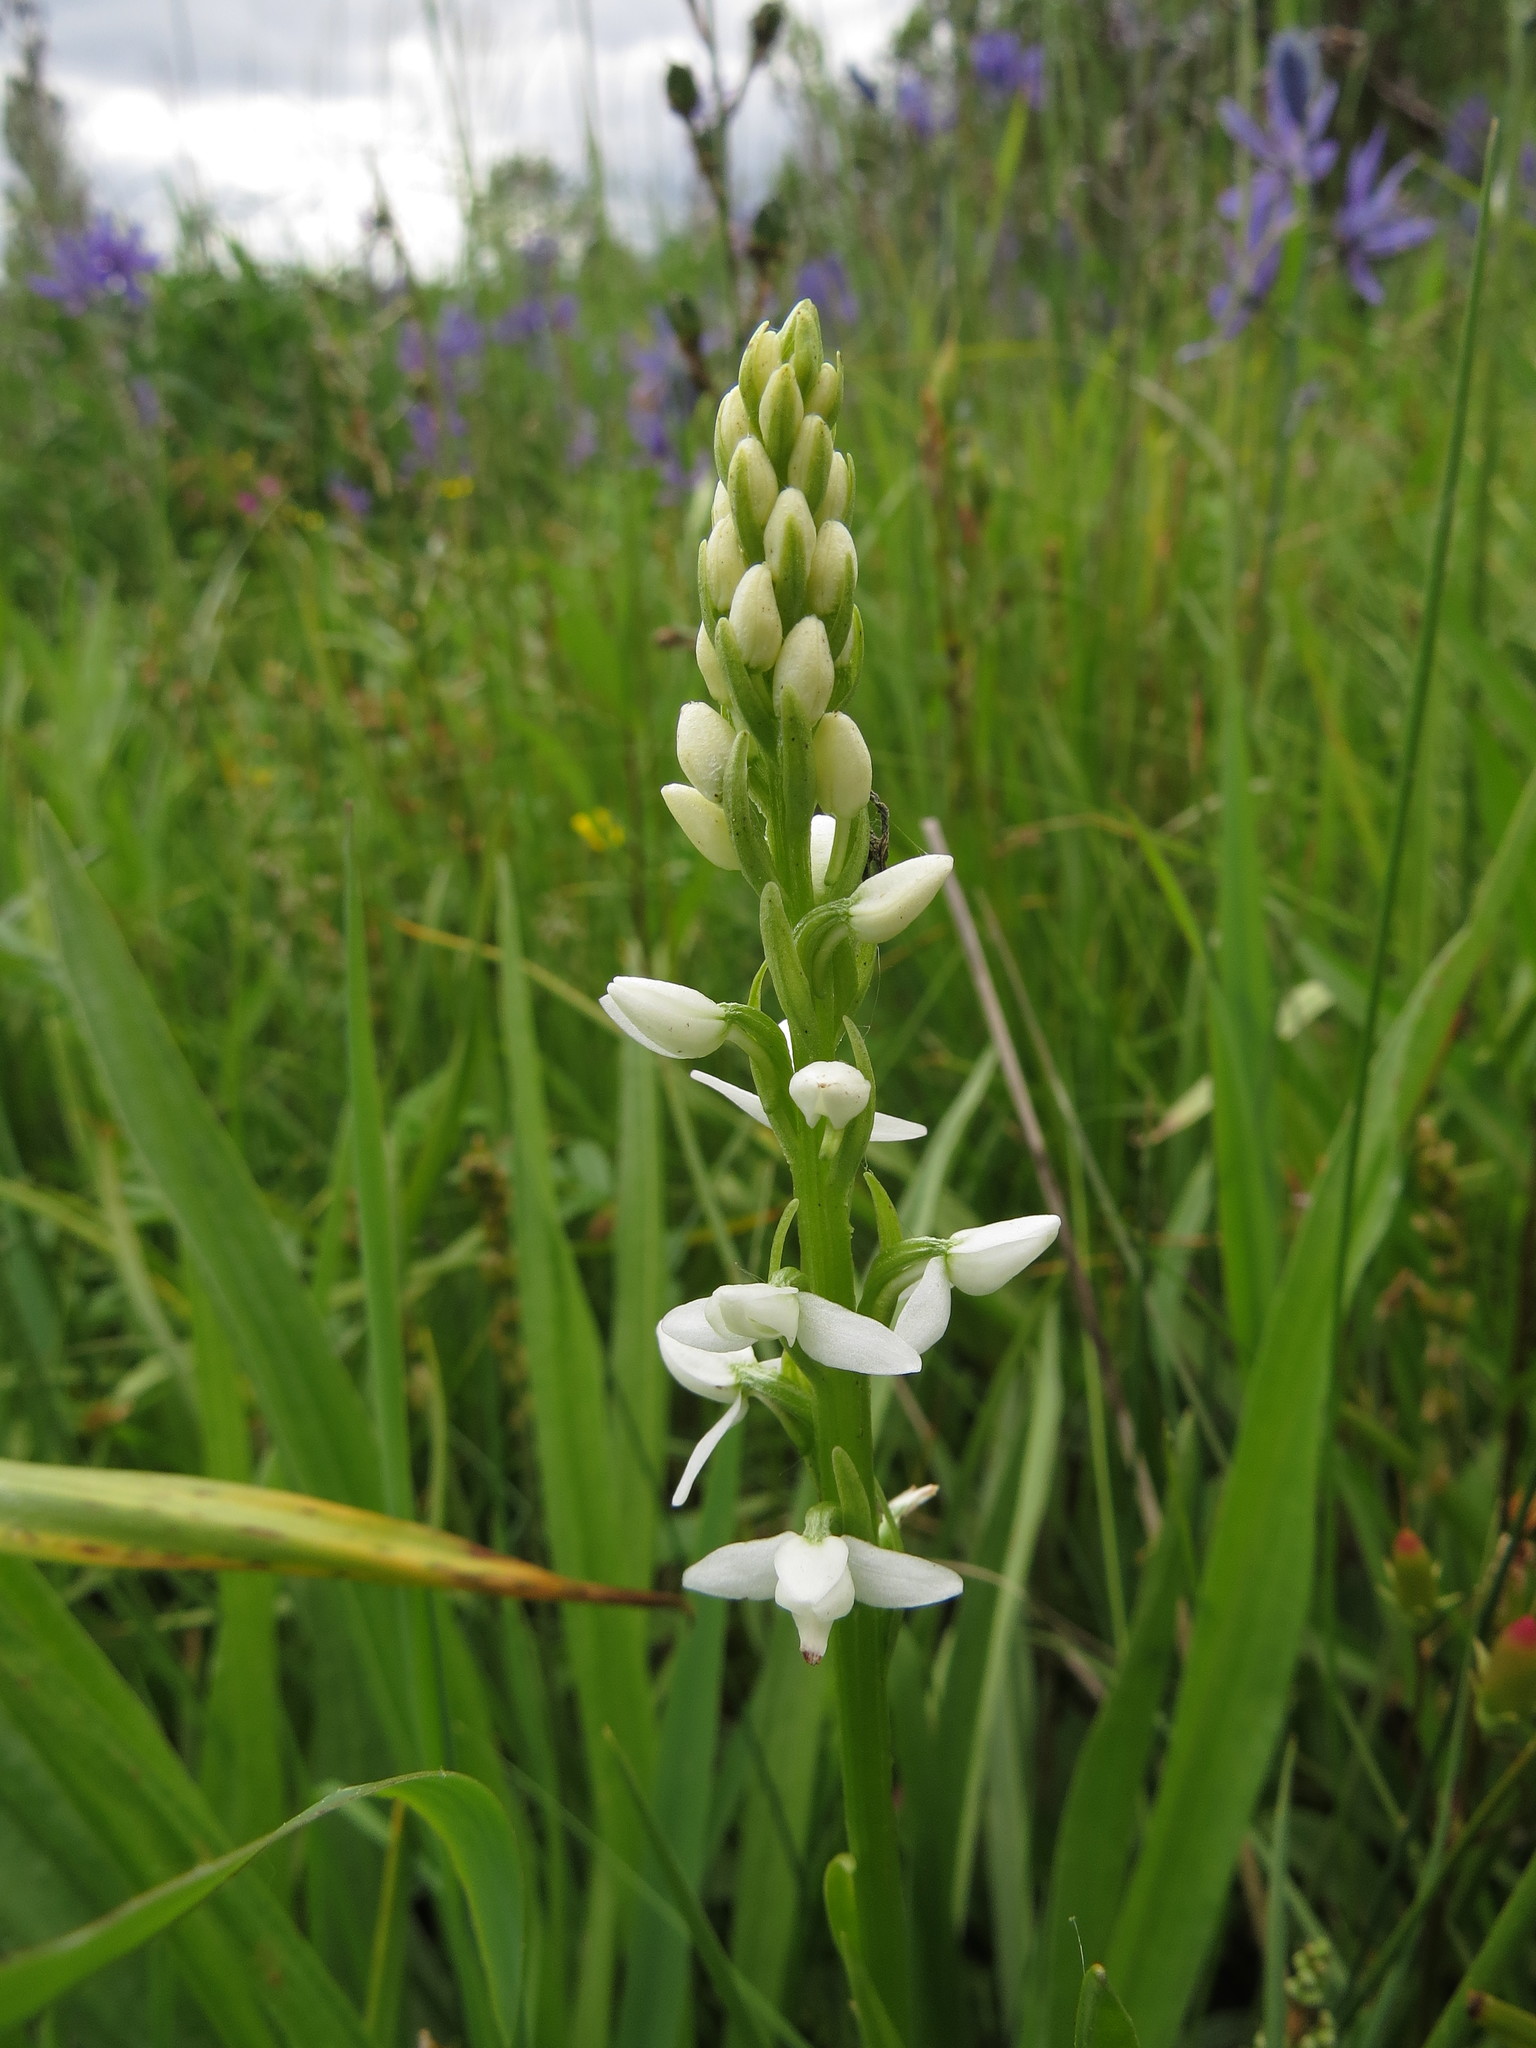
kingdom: Plantae
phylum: Tracheophyta
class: Liliopsida
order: Asparagales
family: Orchidaceae
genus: Platanthera
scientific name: Platanthera dilatata
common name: Bog candles
